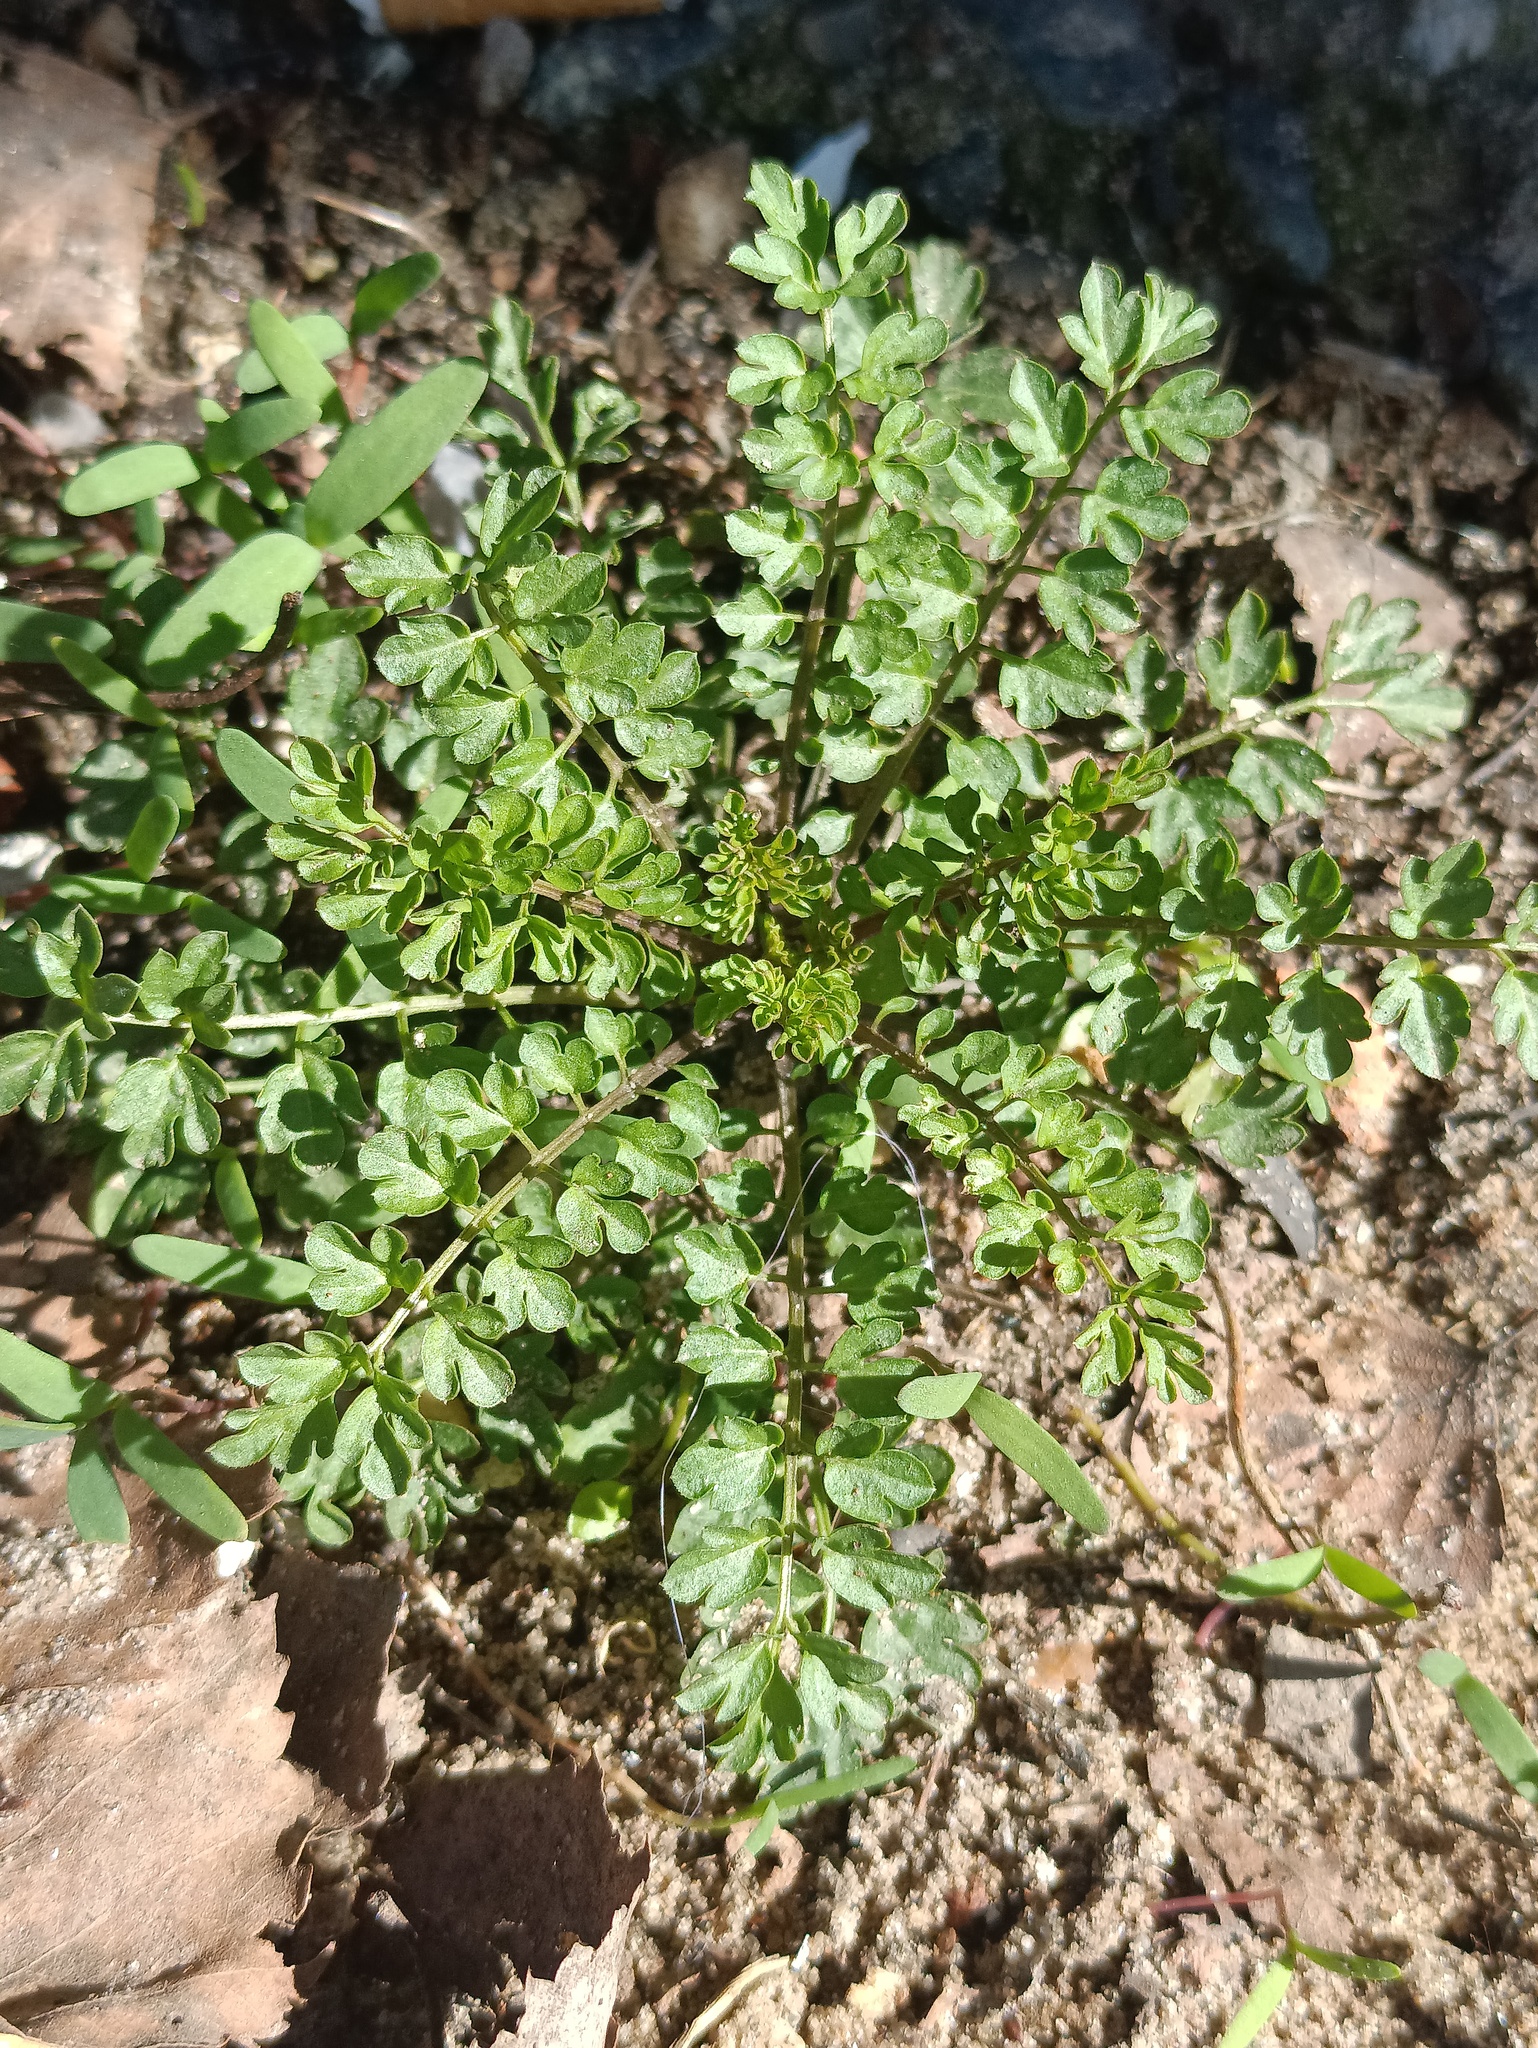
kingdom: Plantae
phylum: Tracheophyta
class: Magnoliopsida
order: Brassicales
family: Brassicaceae
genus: Cardamine
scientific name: Cardamine impatiens
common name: Narrow-leaved bitter-cress
